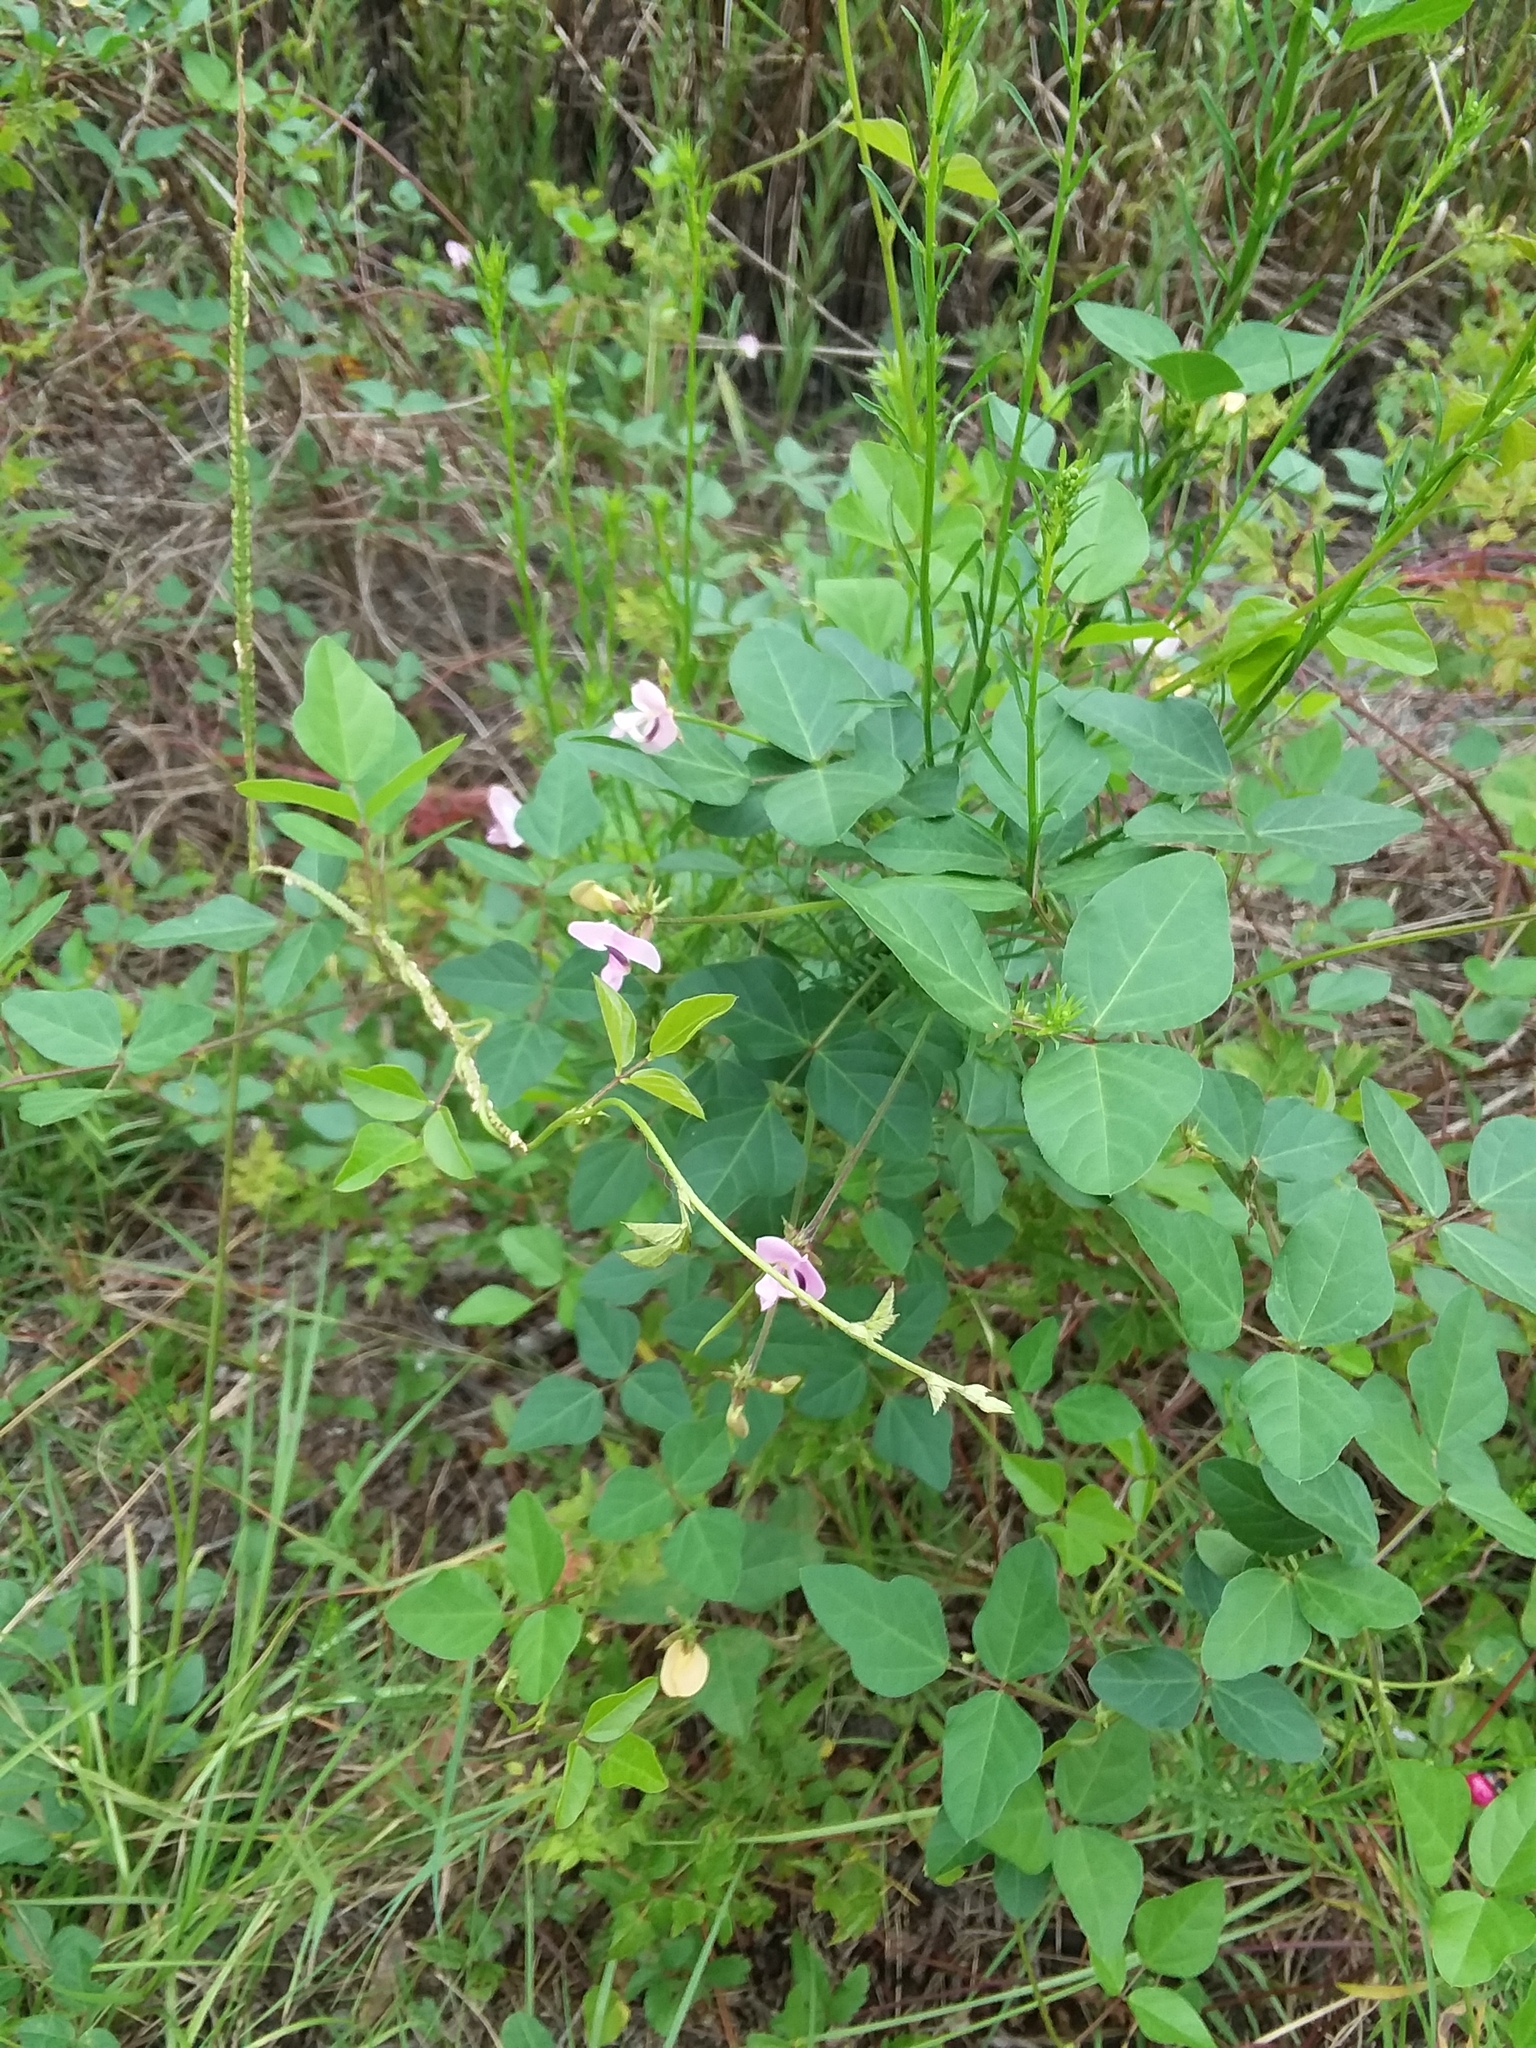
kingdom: Plantae
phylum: Tracheophyta
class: Magnoliopsida
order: Fabales
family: Fabaceae
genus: Strophostyles
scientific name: Strophostyles helvola
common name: Trailing wild bean
